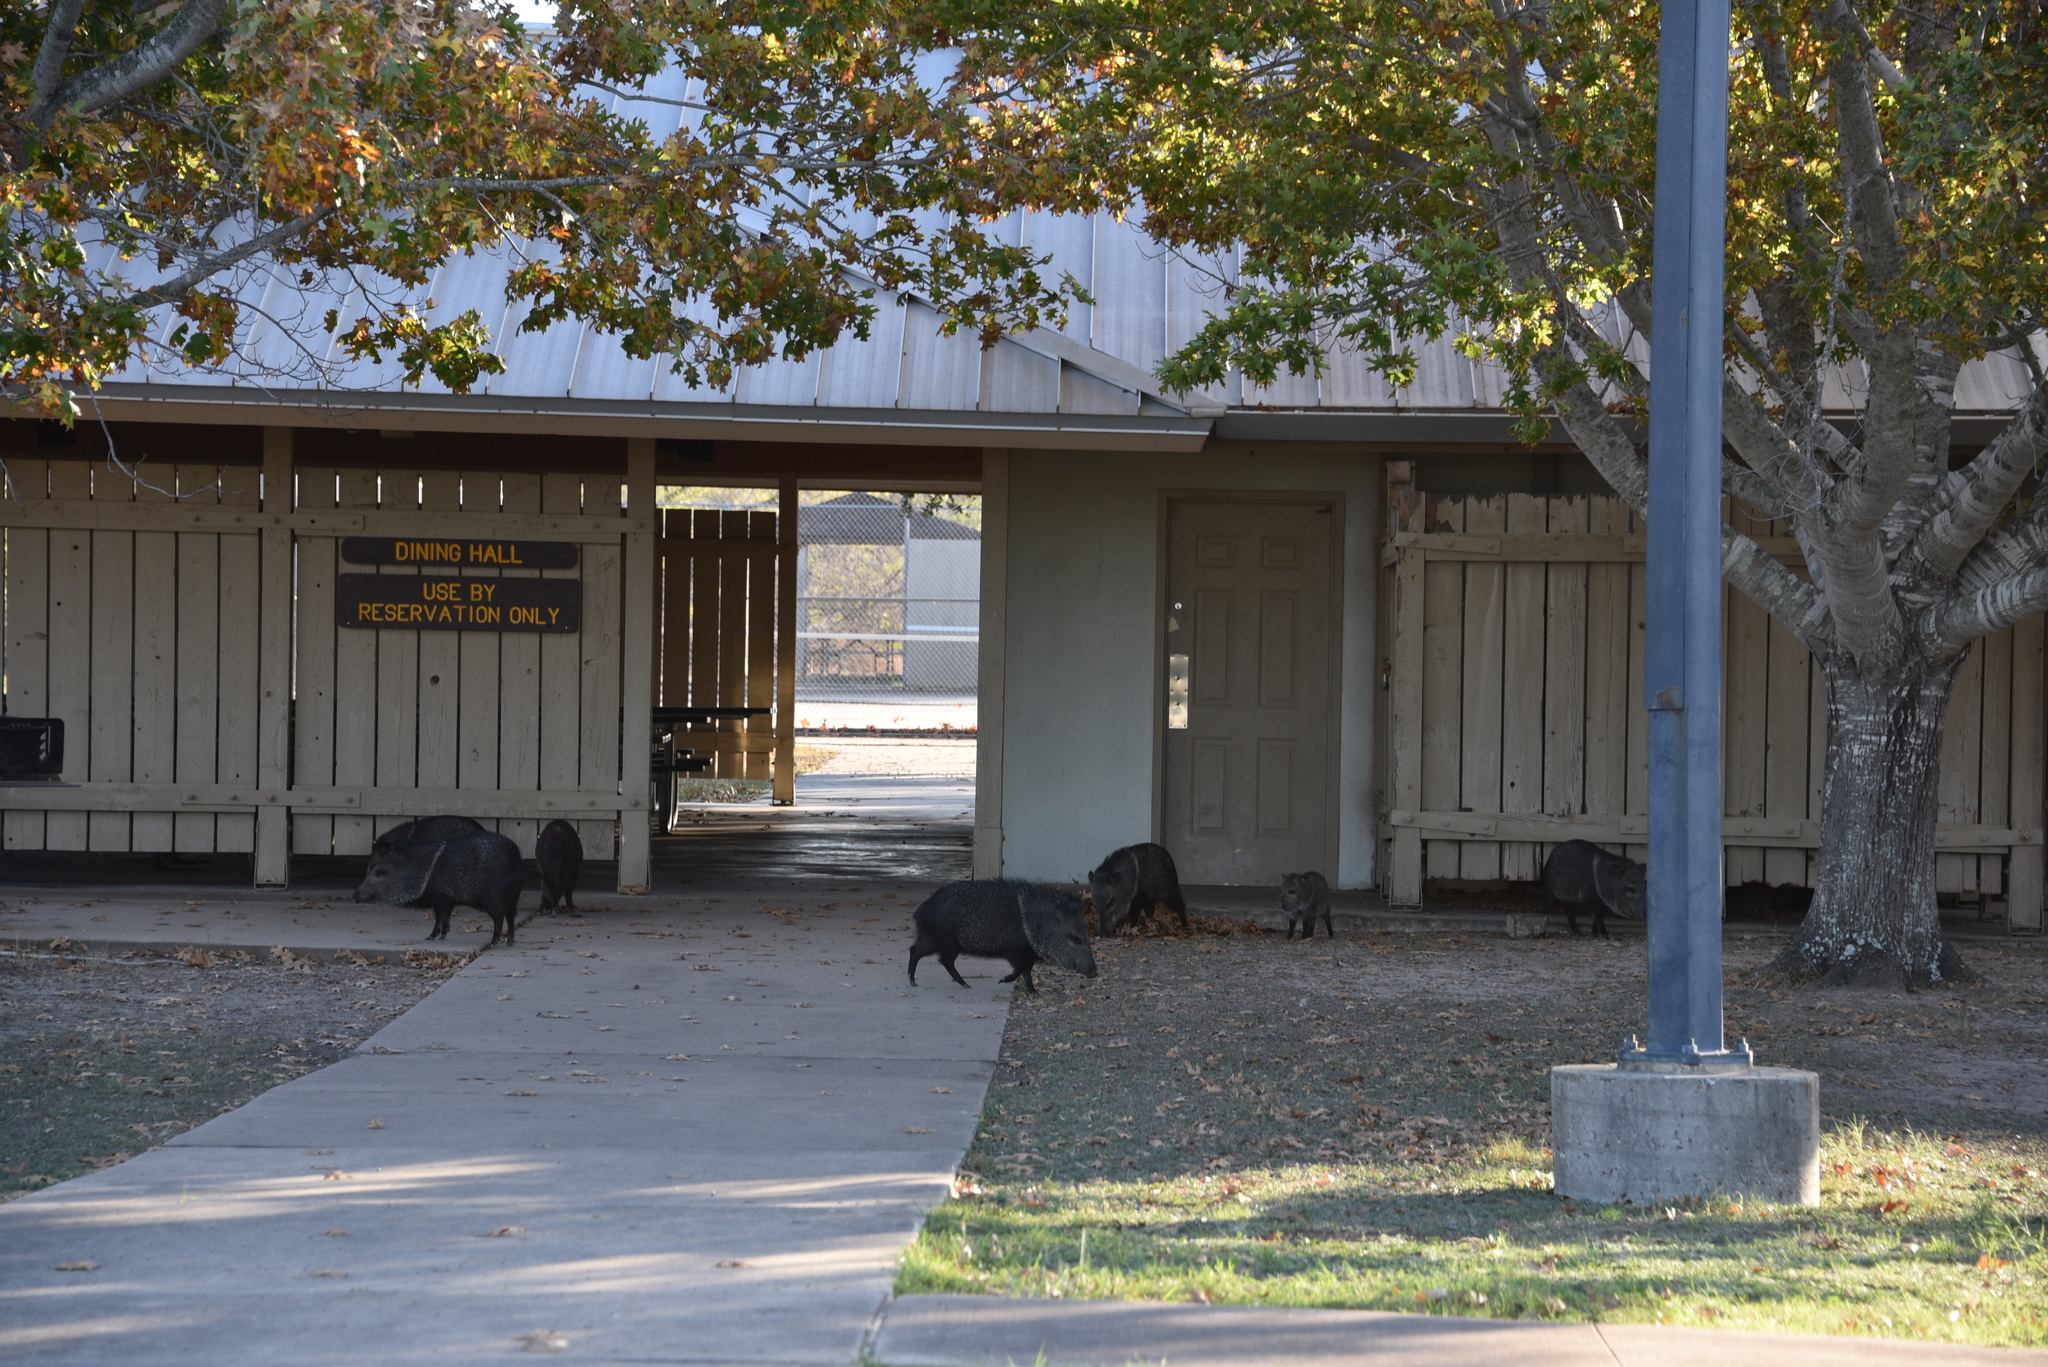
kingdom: Animalia
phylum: Chordata
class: Mammalia
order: Artiodactyla
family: Tayassuidae
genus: Pecari
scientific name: Pecari tajacu
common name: Collared peccary
